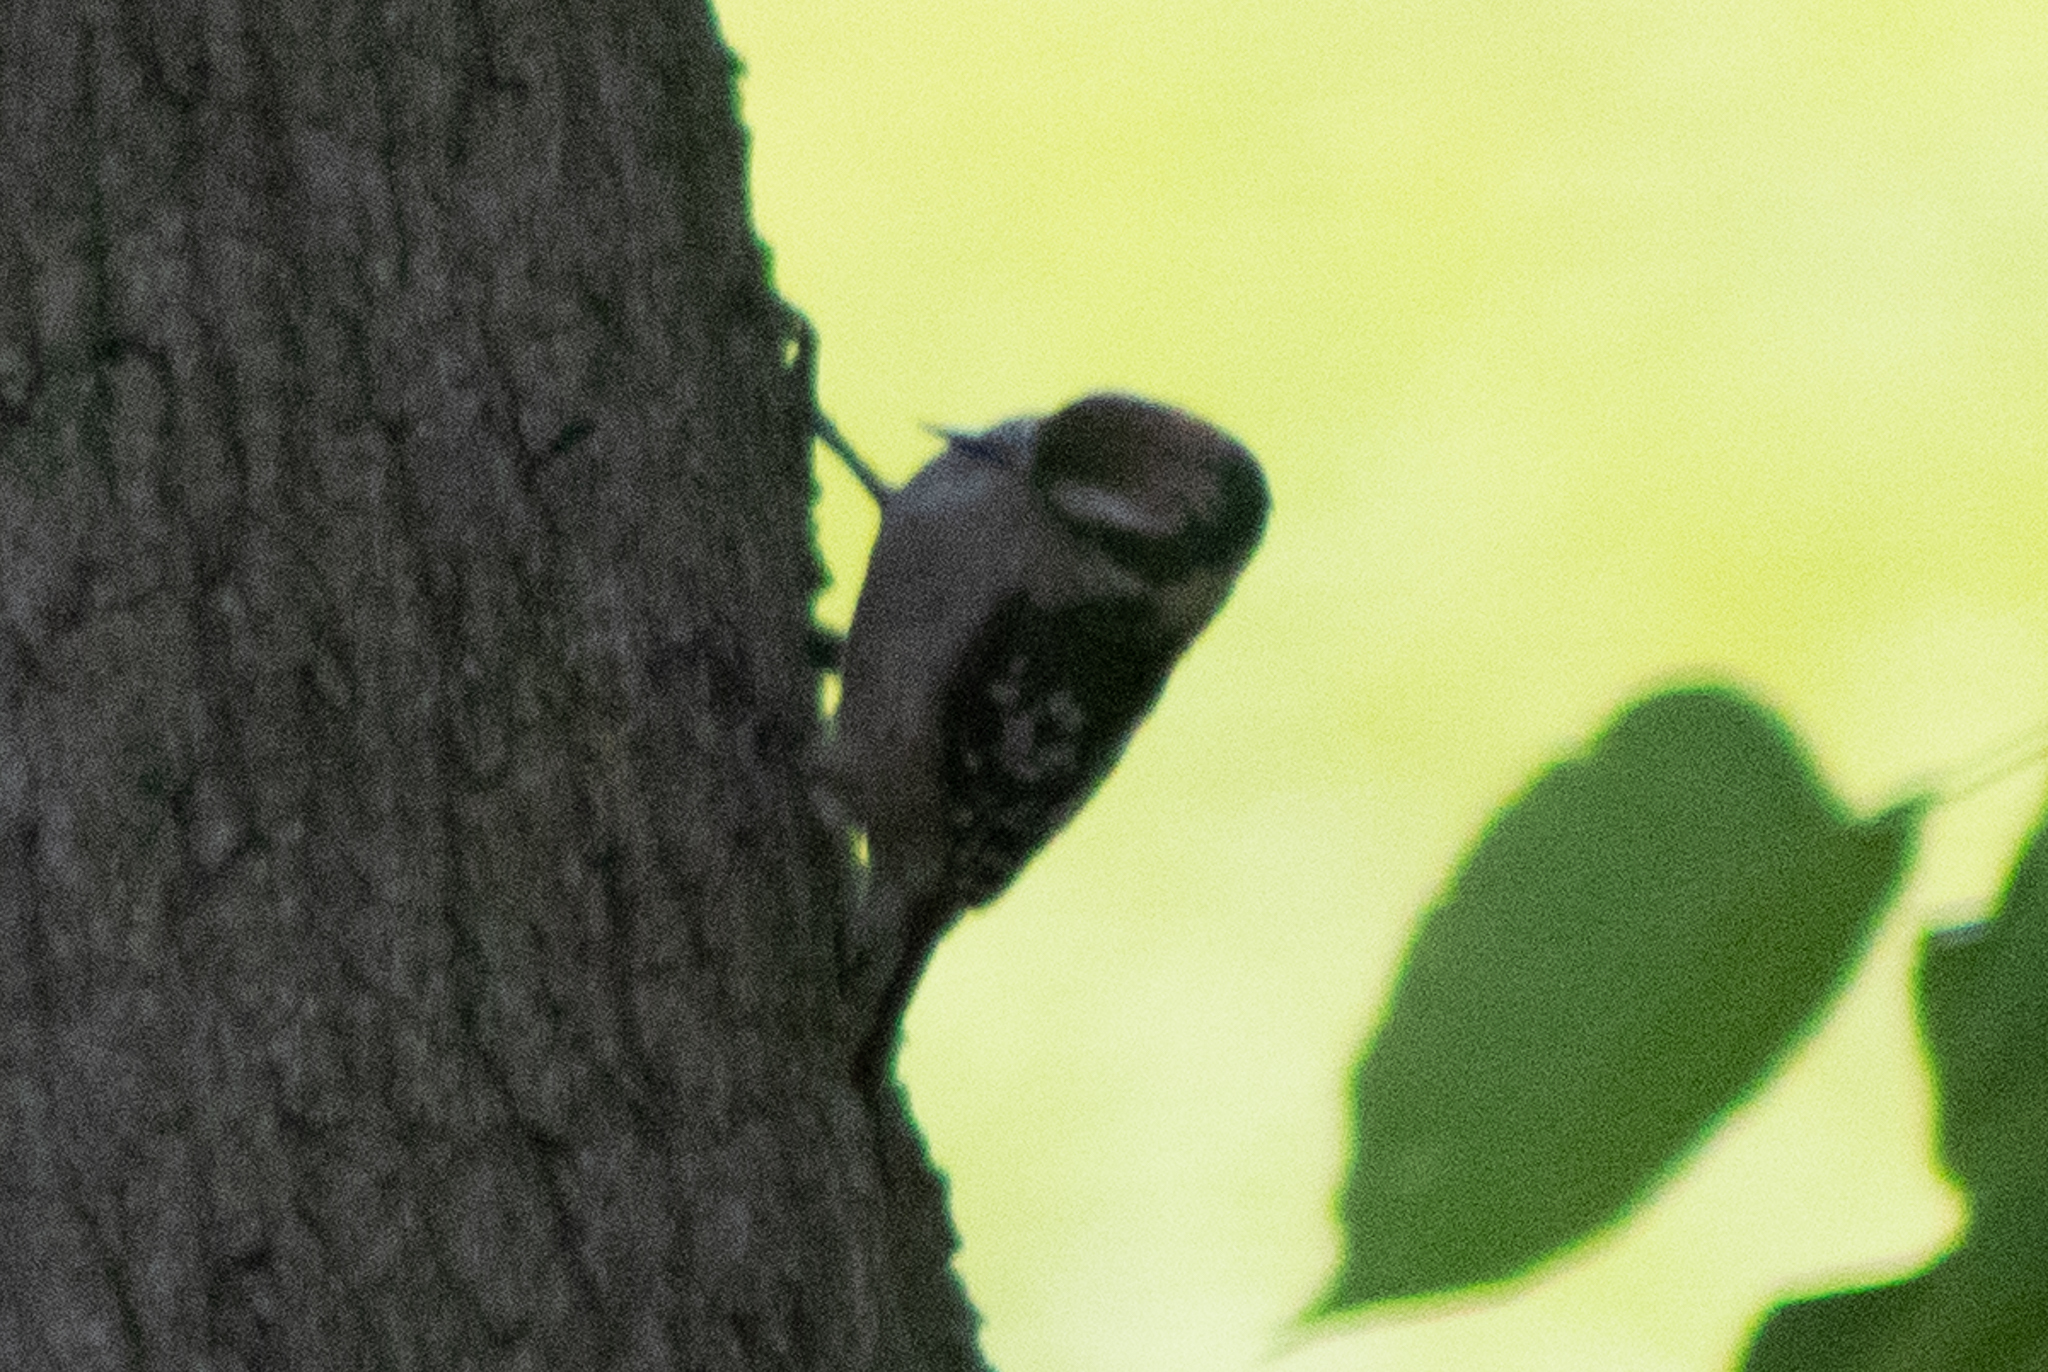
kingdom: Animalia
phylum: Chordata
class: Aves
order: Piciformes
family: Picidae
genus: Dryobates
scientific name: Dryobates pubescens
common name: Downy woodpecker
